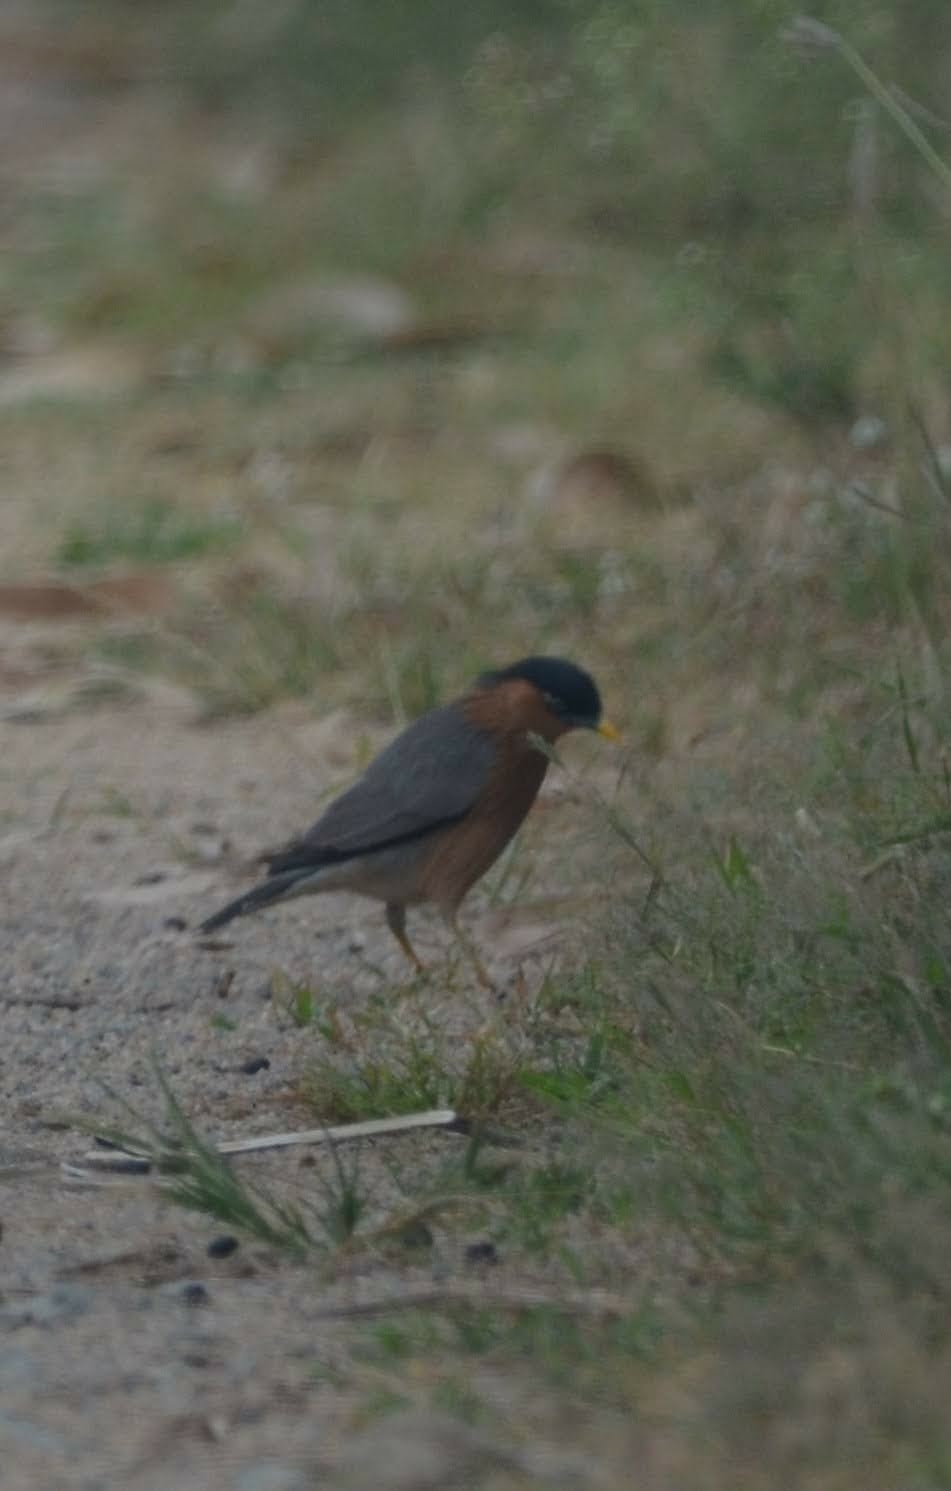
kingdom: Animalia
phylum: Chordata
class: Aves
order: Passeriformes
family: Sturnidae
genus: Sturnia
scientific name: Sturnia pagodarum
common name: Brahminy starling
